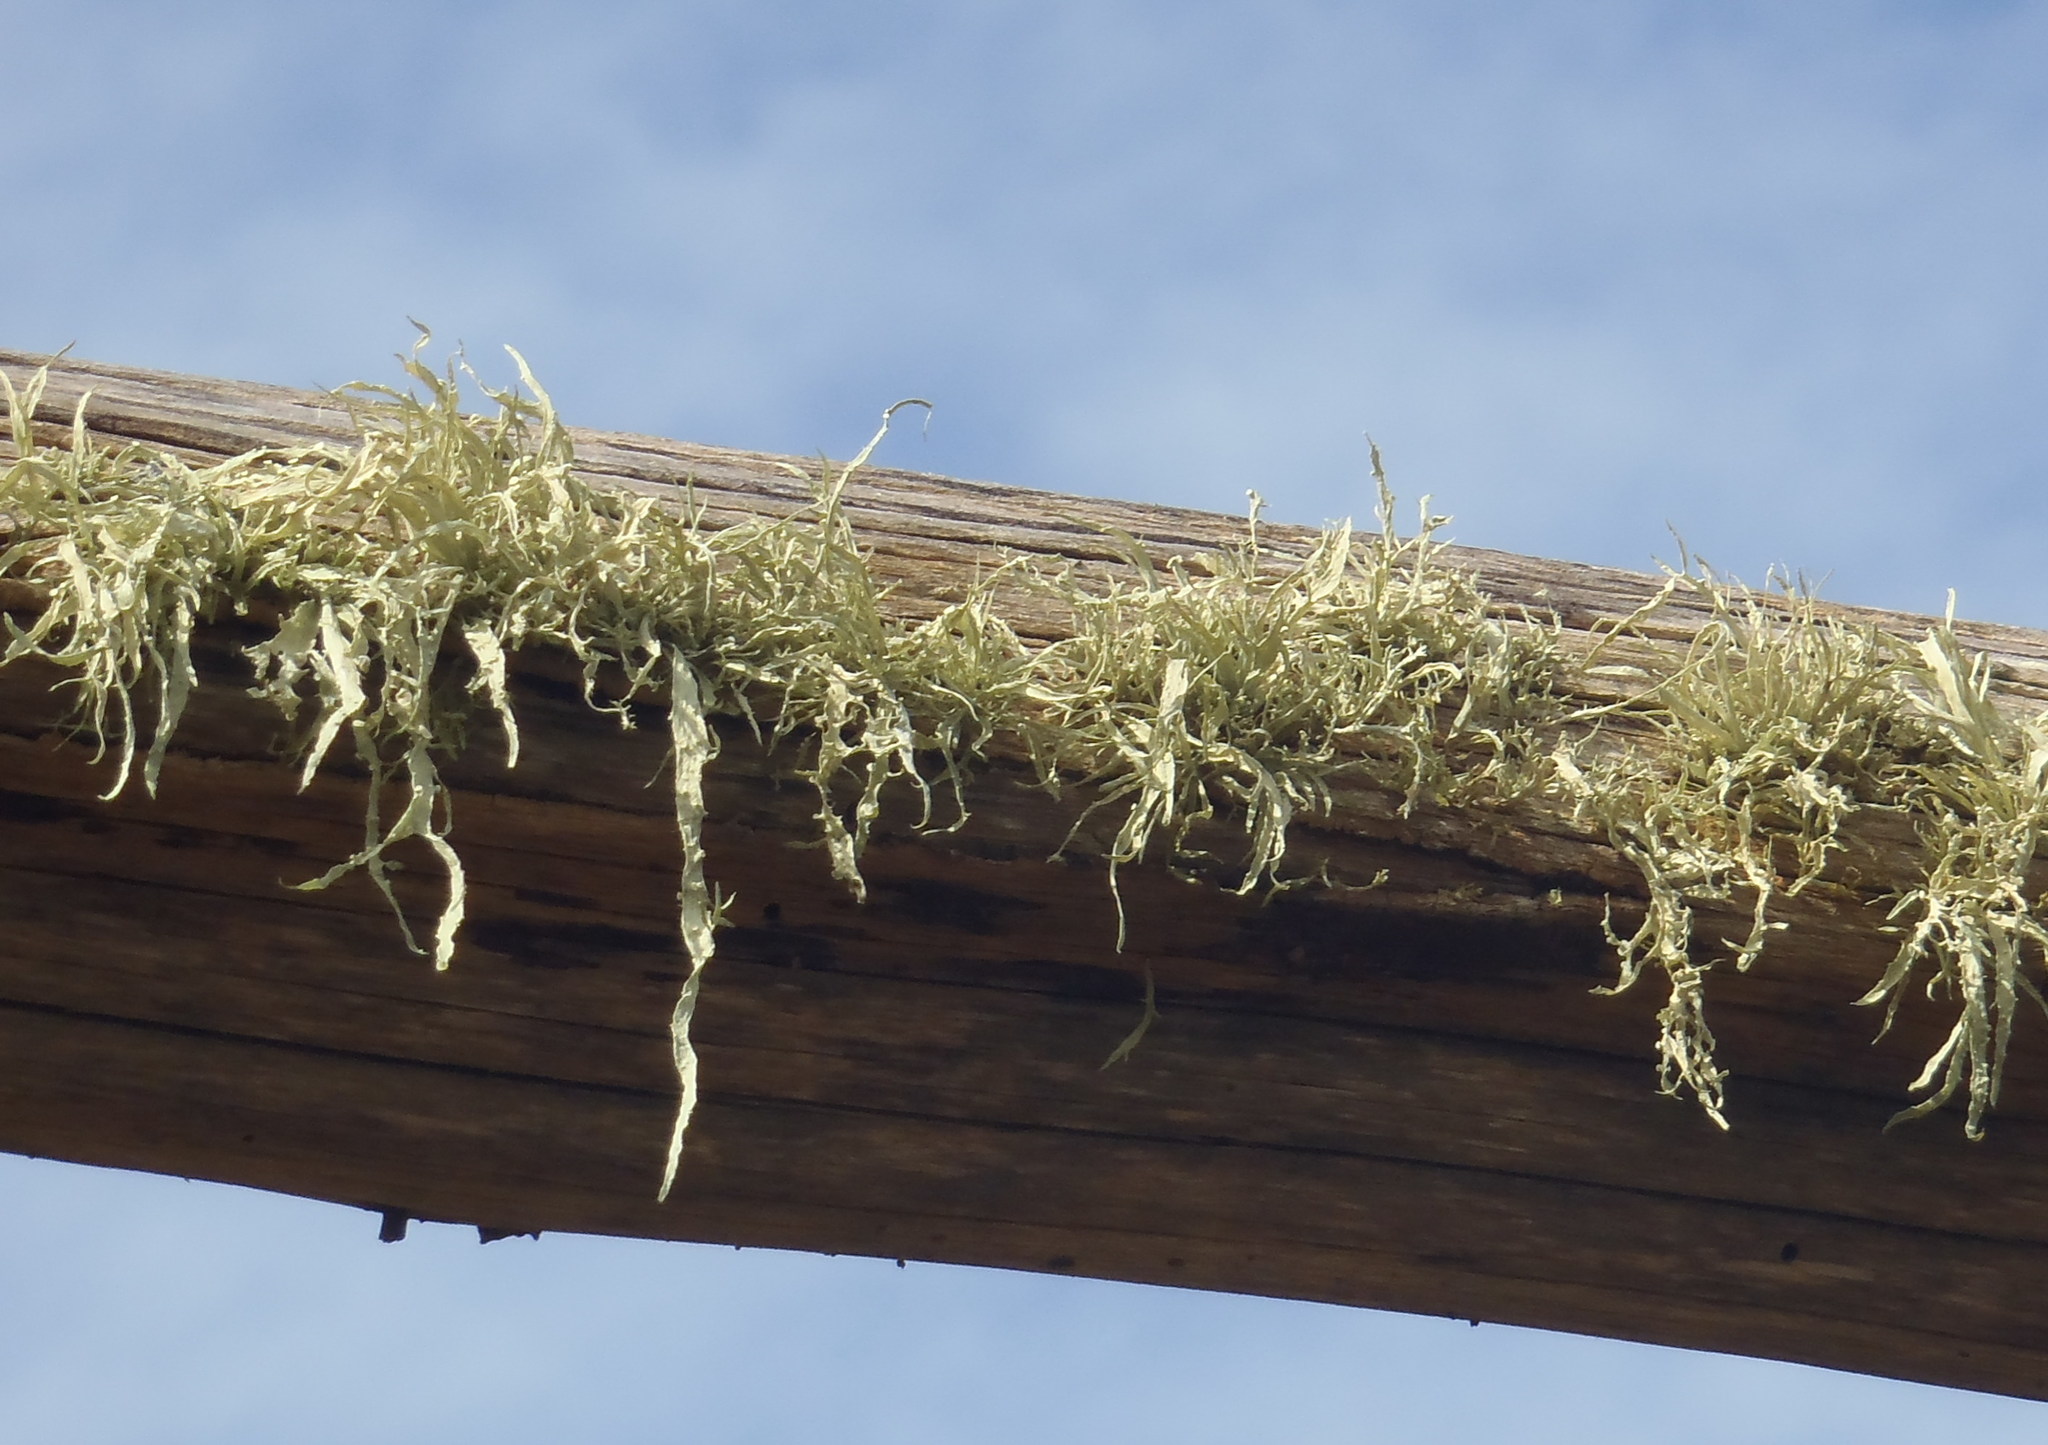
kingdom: Fungi
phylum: Ascomycota
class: Lecanoromycetes
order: Lecanorales
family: Ramalinaceae
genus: Ramalina
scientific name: Ramalina celastri
